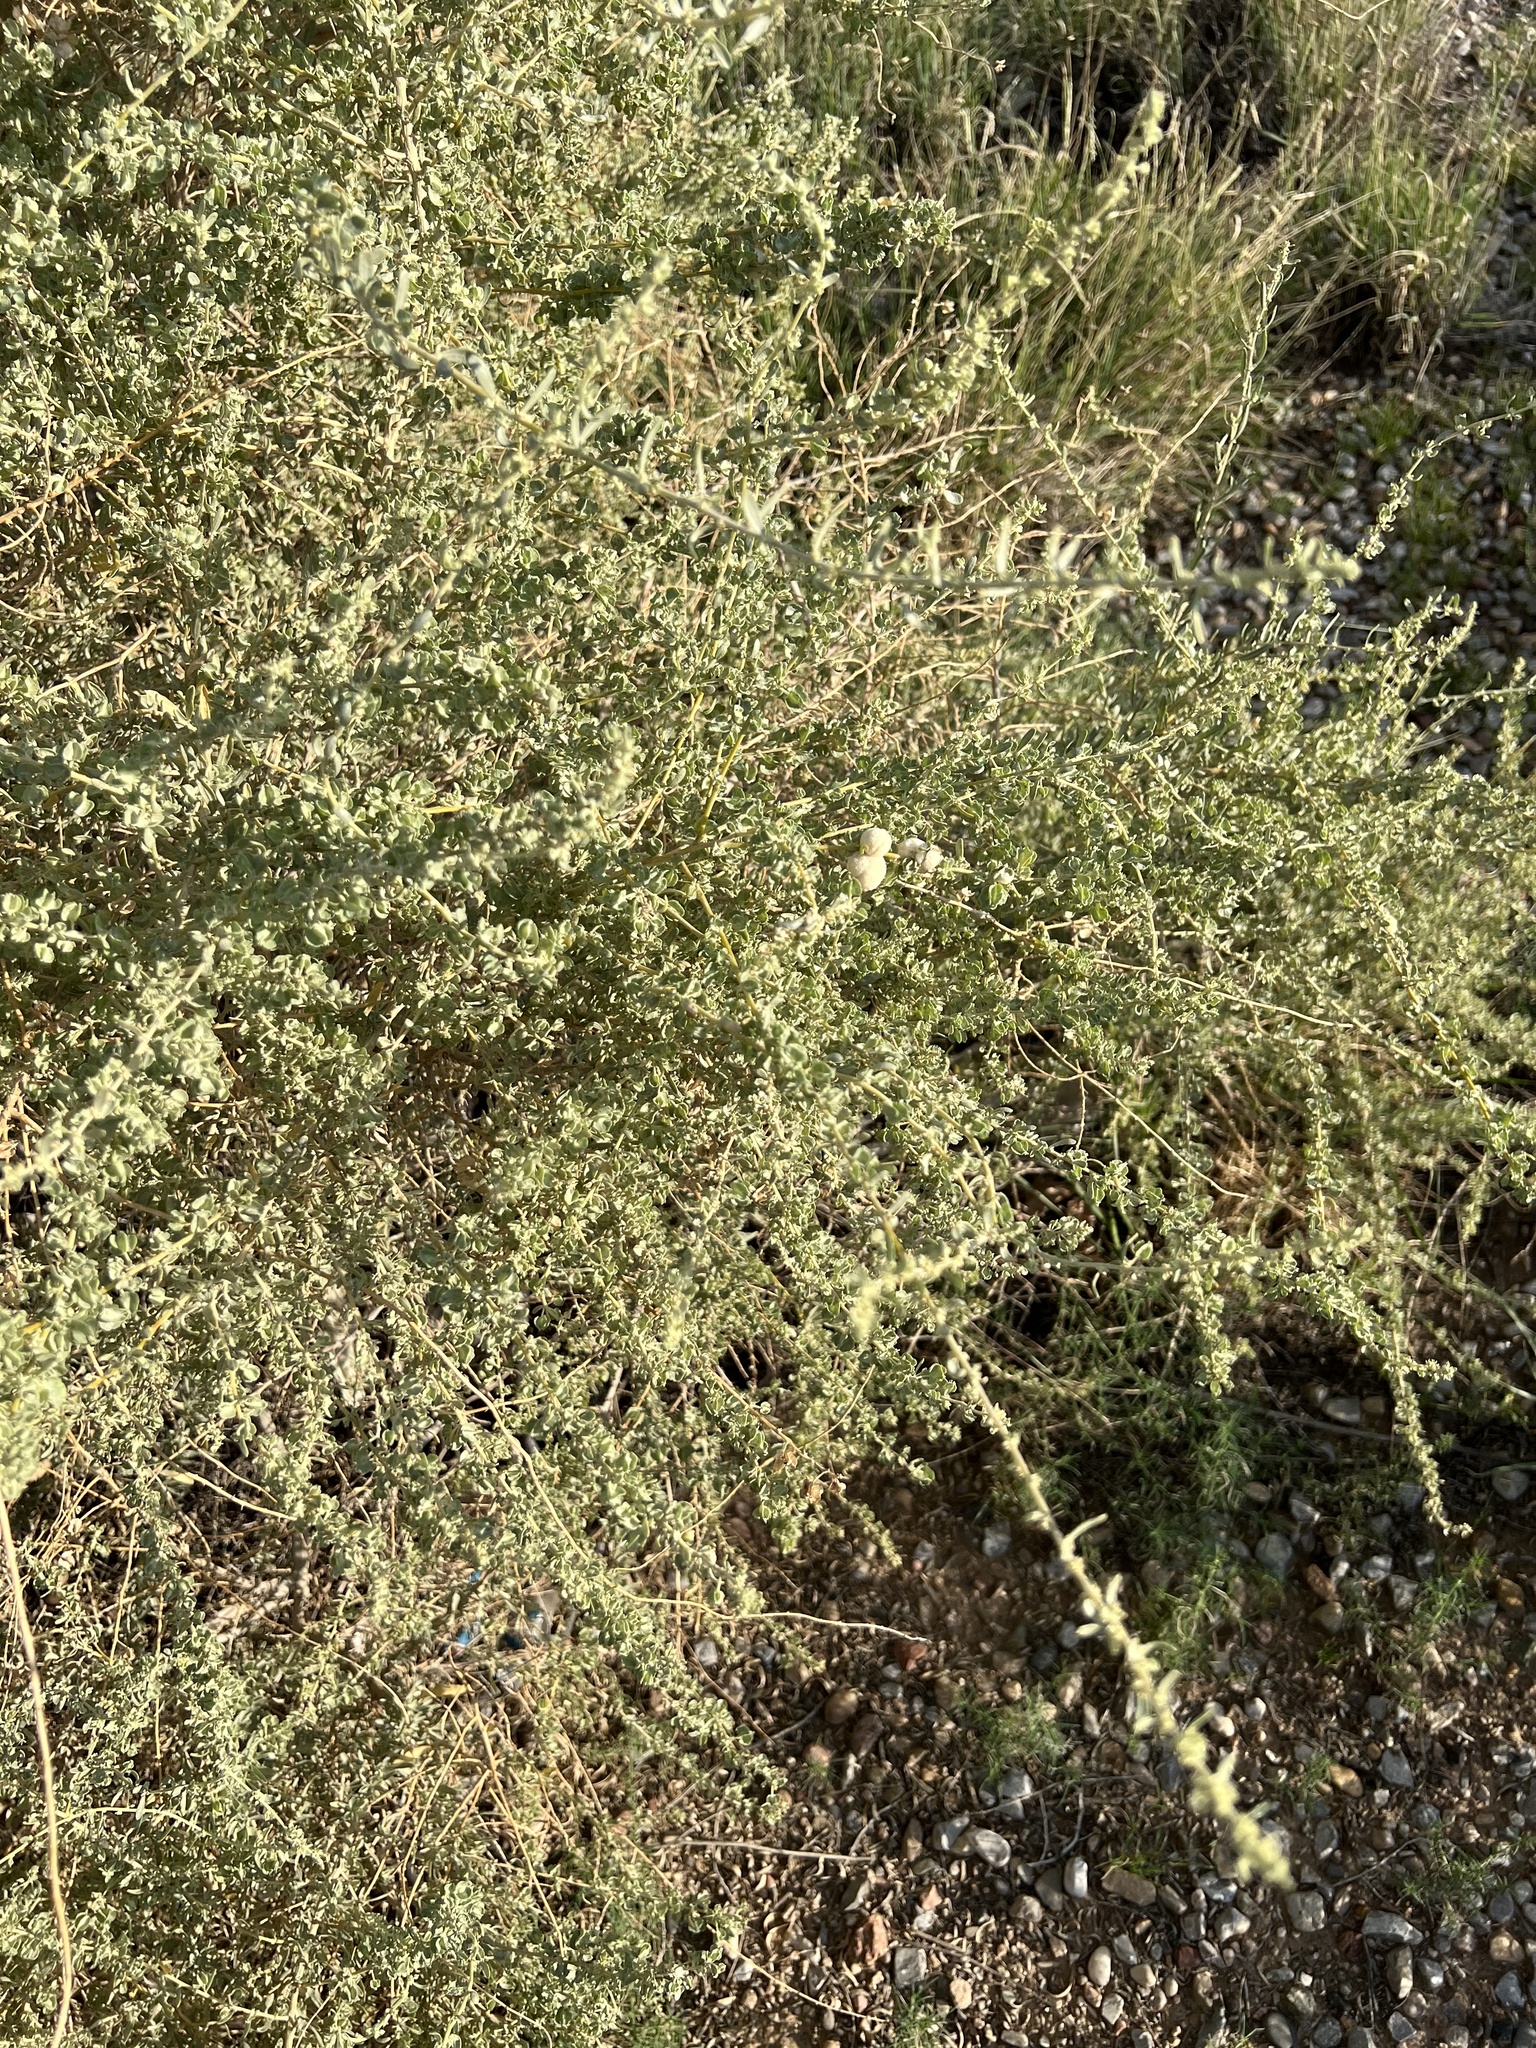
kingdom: Animalia
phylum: Arthropoda
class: Insecta
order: Diptera
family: Cecidomyiidae
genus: Asphondylia
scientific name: Asphondylia neomexicana
